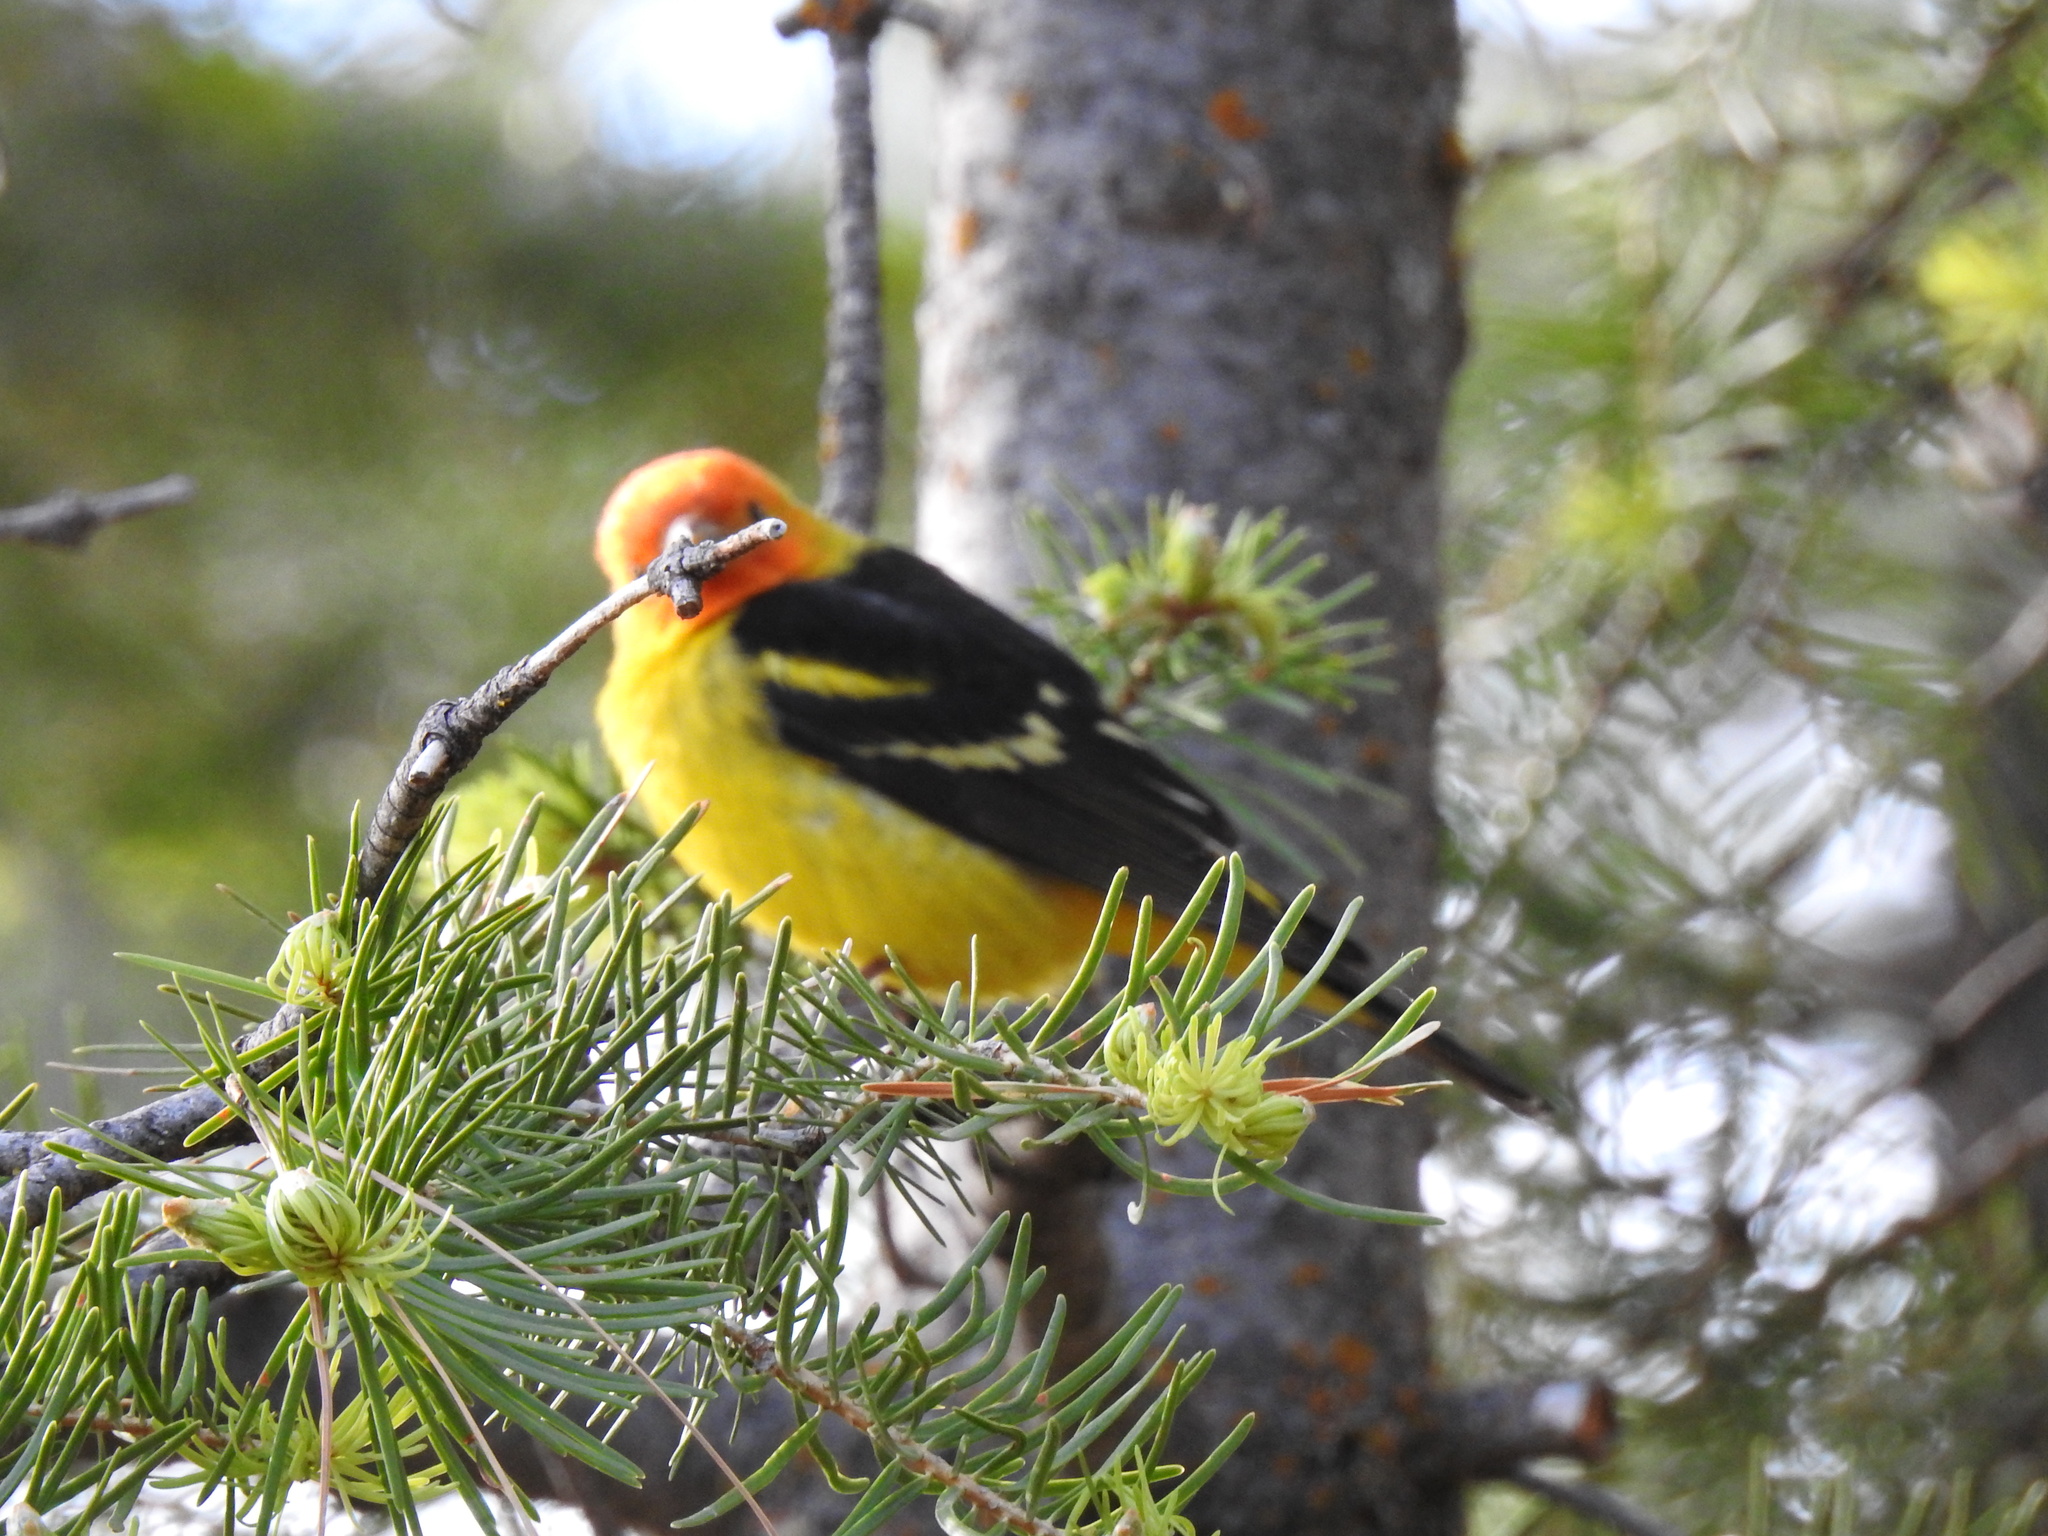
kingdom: Animalia
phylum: Chordata
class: Aves
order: Passeriformes
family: Cardinalidae
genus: Piranga
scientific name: Piranga ludoviciana
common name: Western tanager
